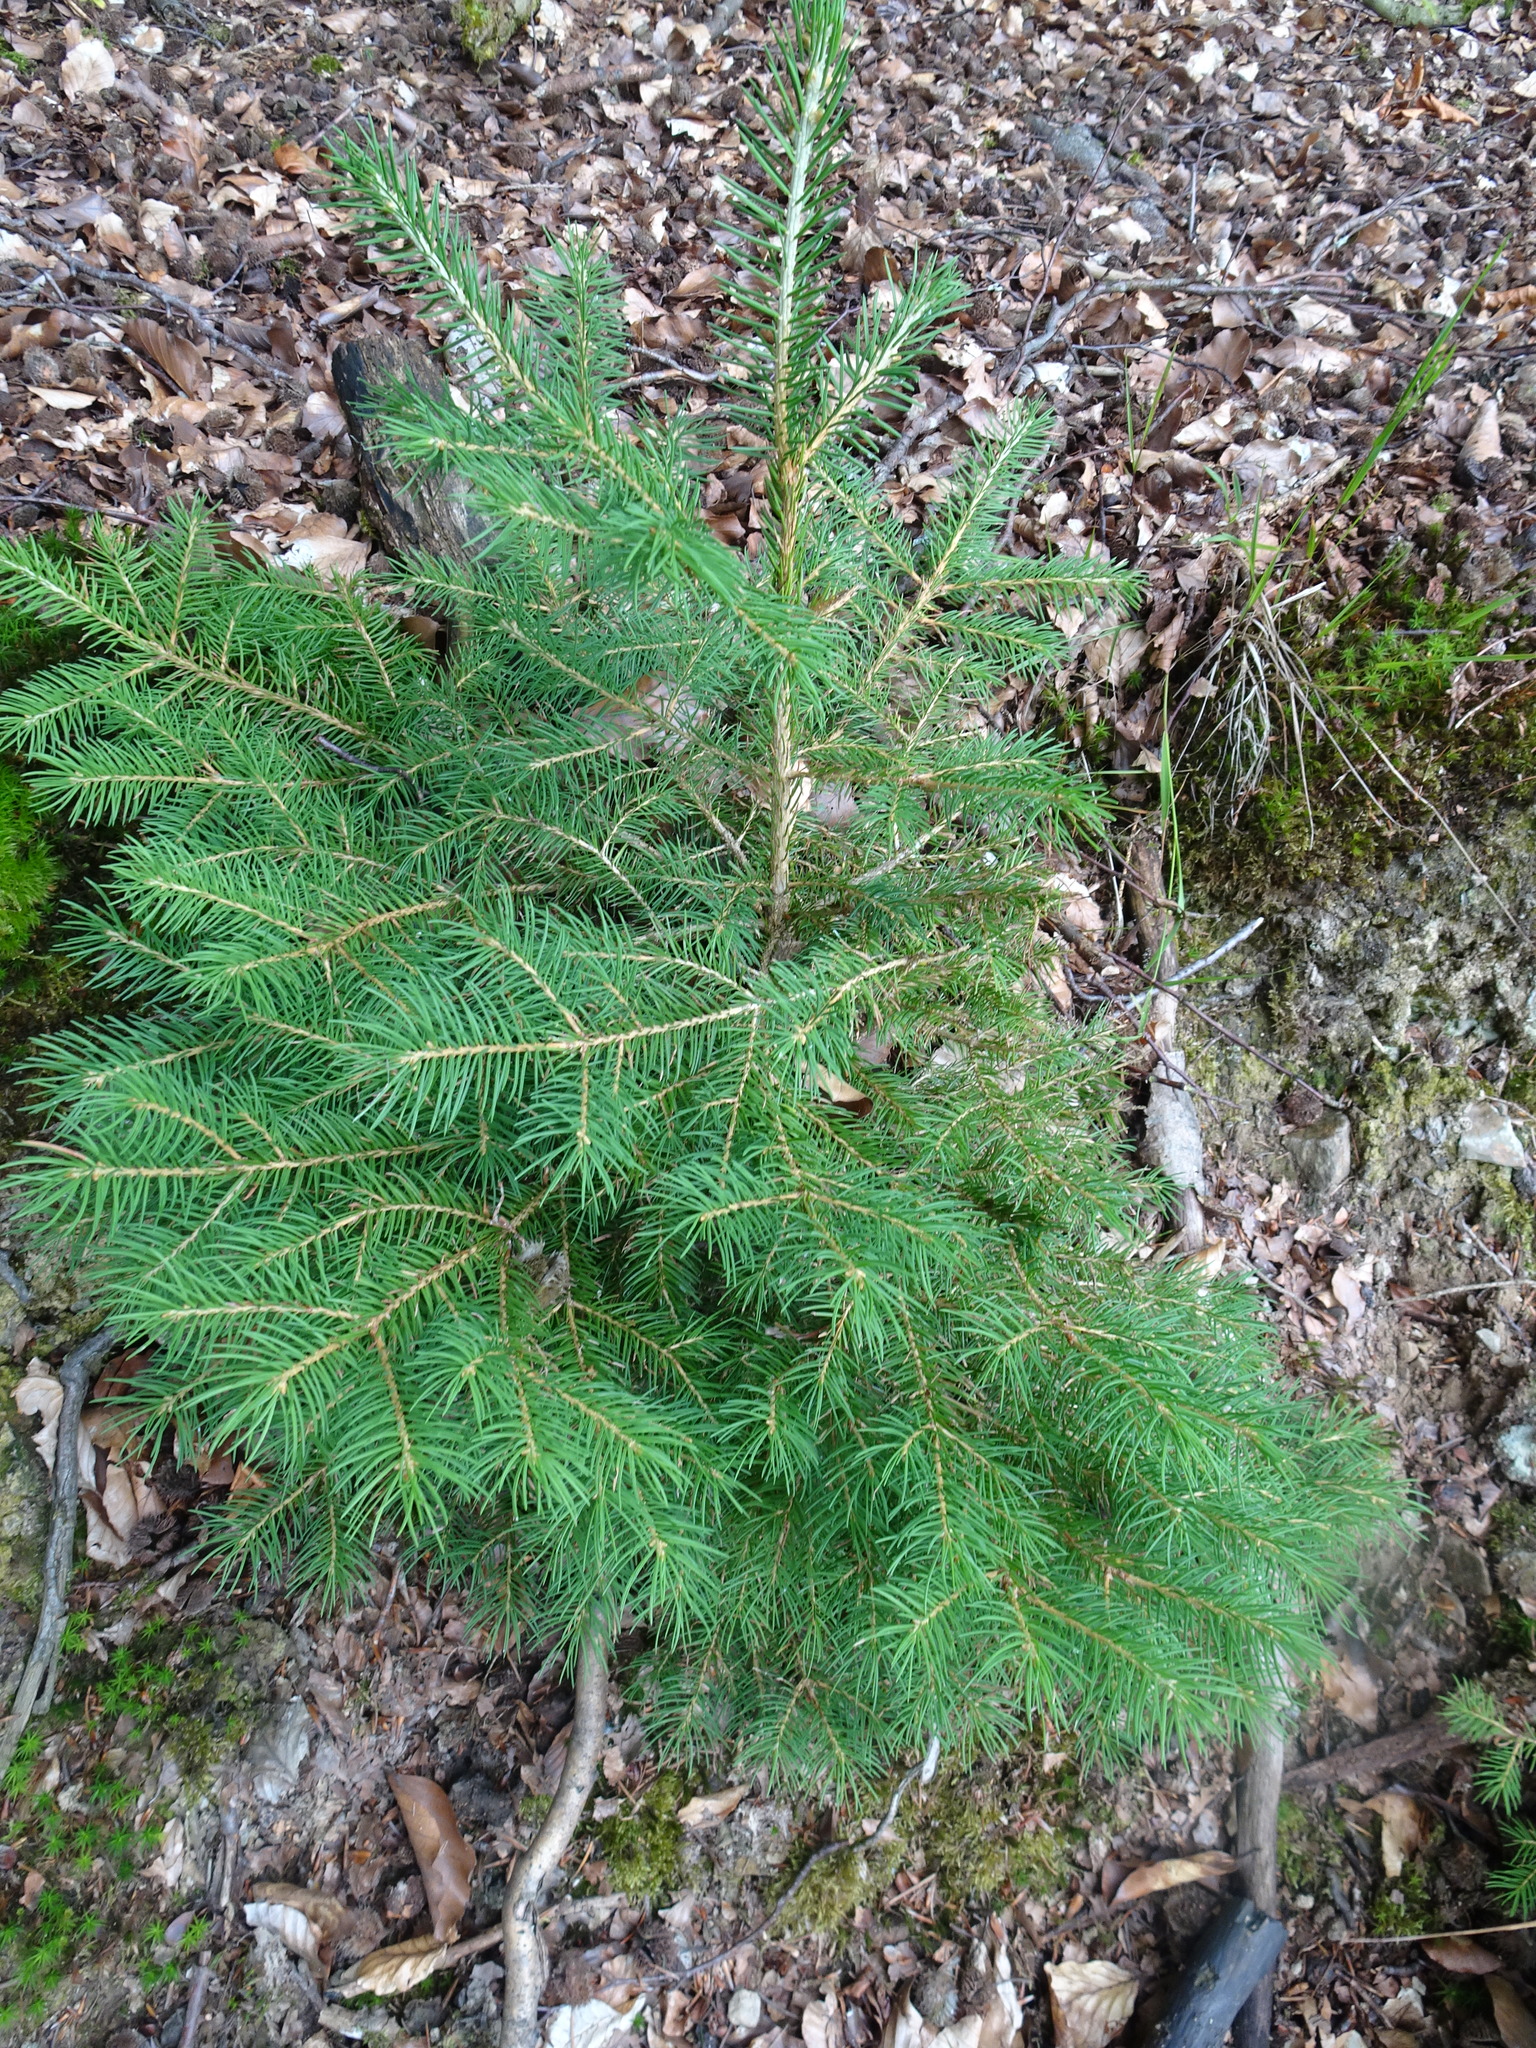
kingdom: Plantae
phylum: Tracheophyta
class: Pinopsida
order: Pinales
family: Pinaceae
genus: Picea
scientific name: Picea abies
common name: Norway spruce
